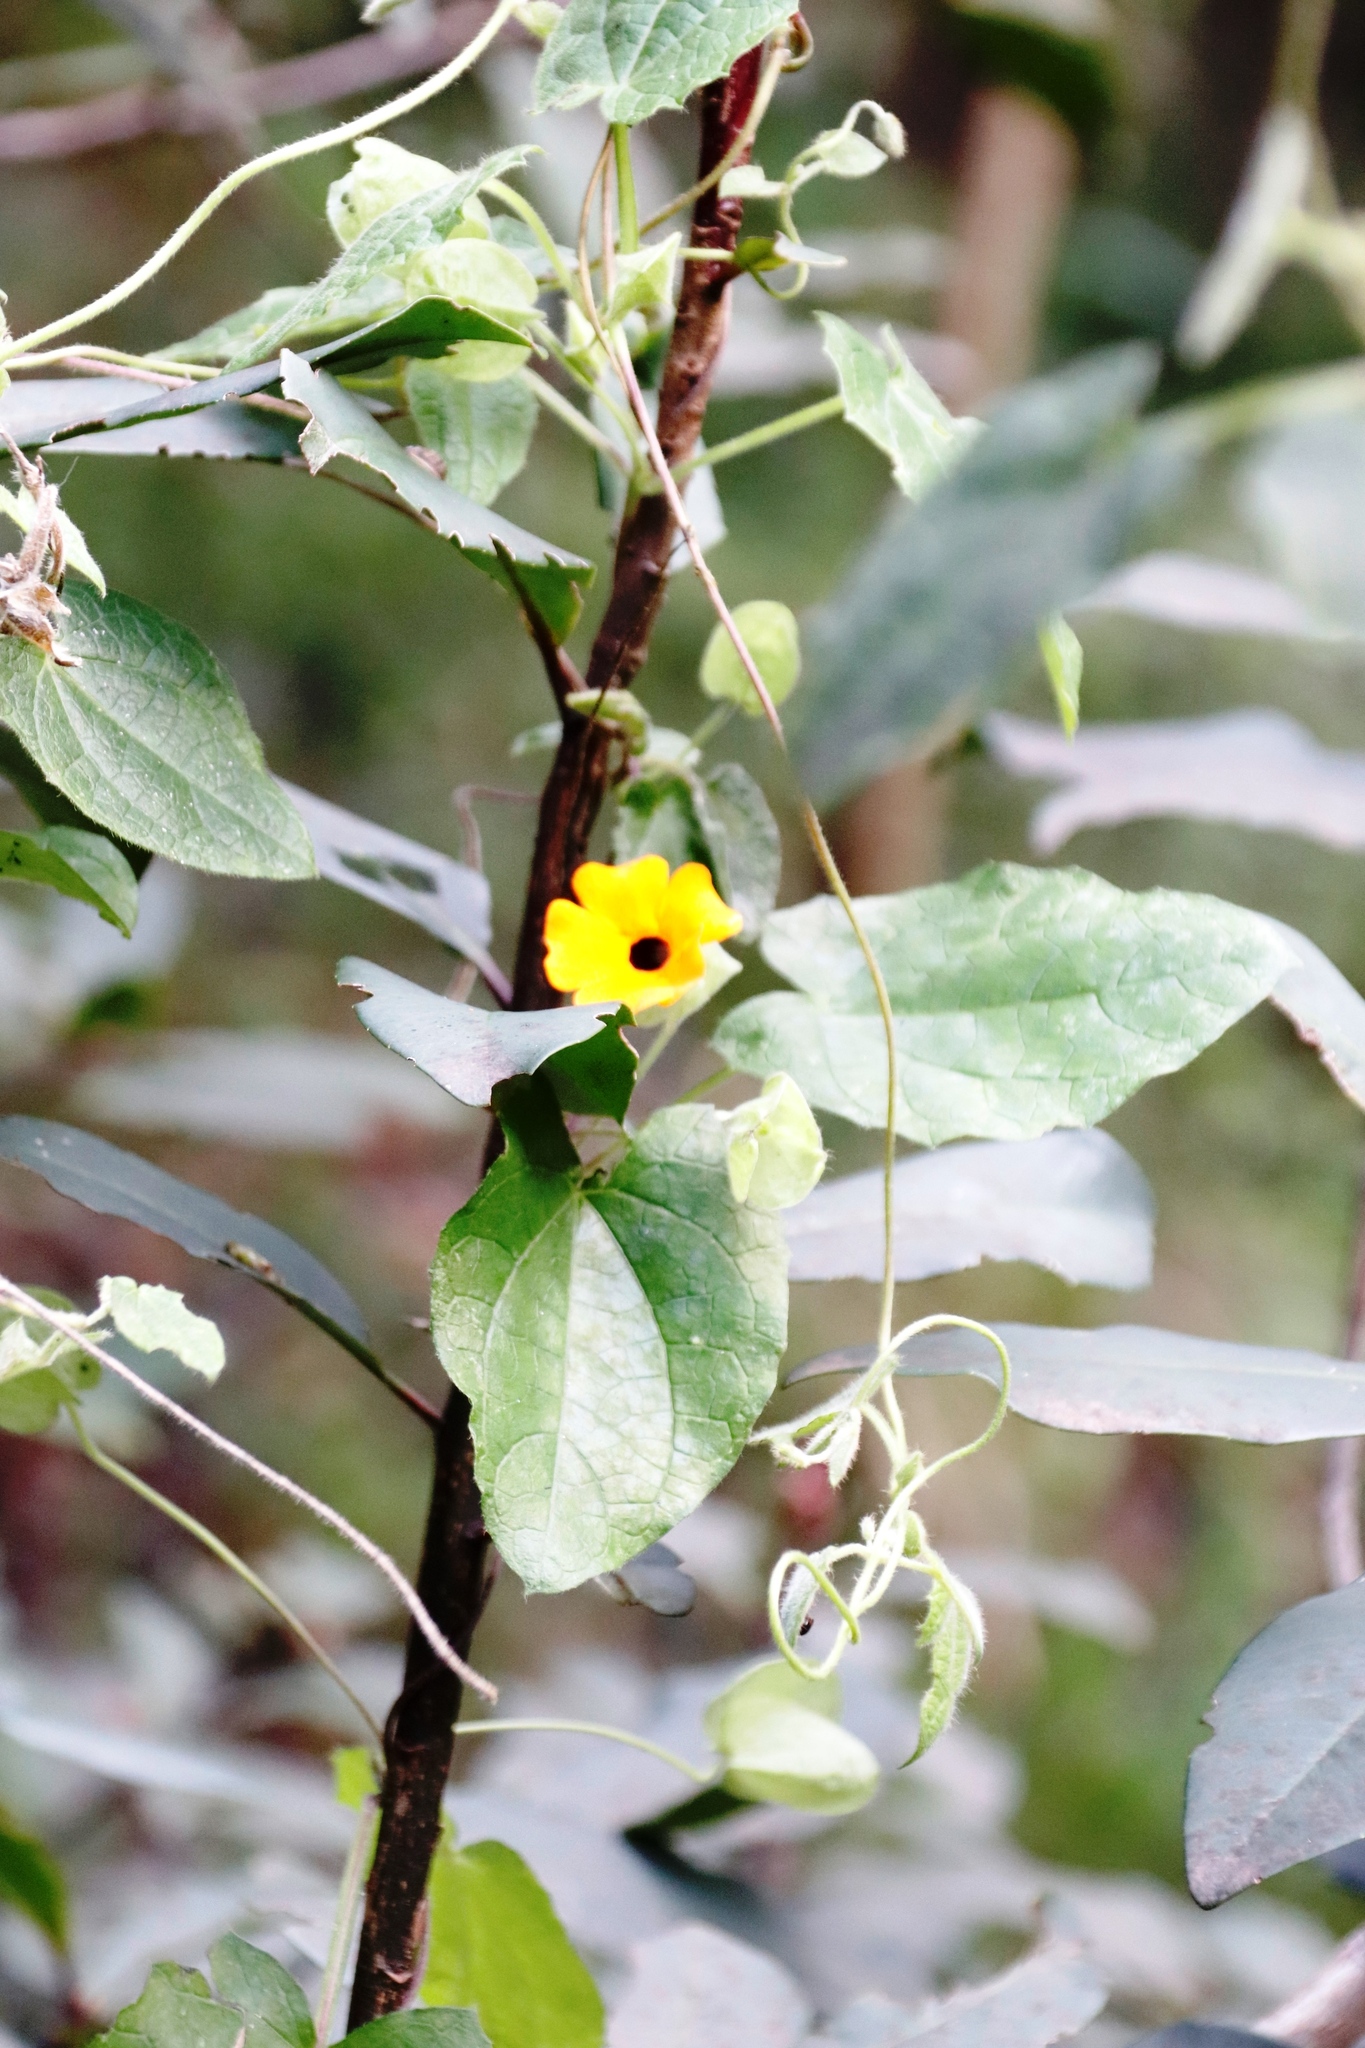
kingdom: Plantae
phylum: Tracheophyta
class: Magnoliopsida
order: Lamiales
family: Acanthaceae
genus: Thunbergia
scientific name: Thunbergia alata
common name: Blackeyed susan vine
